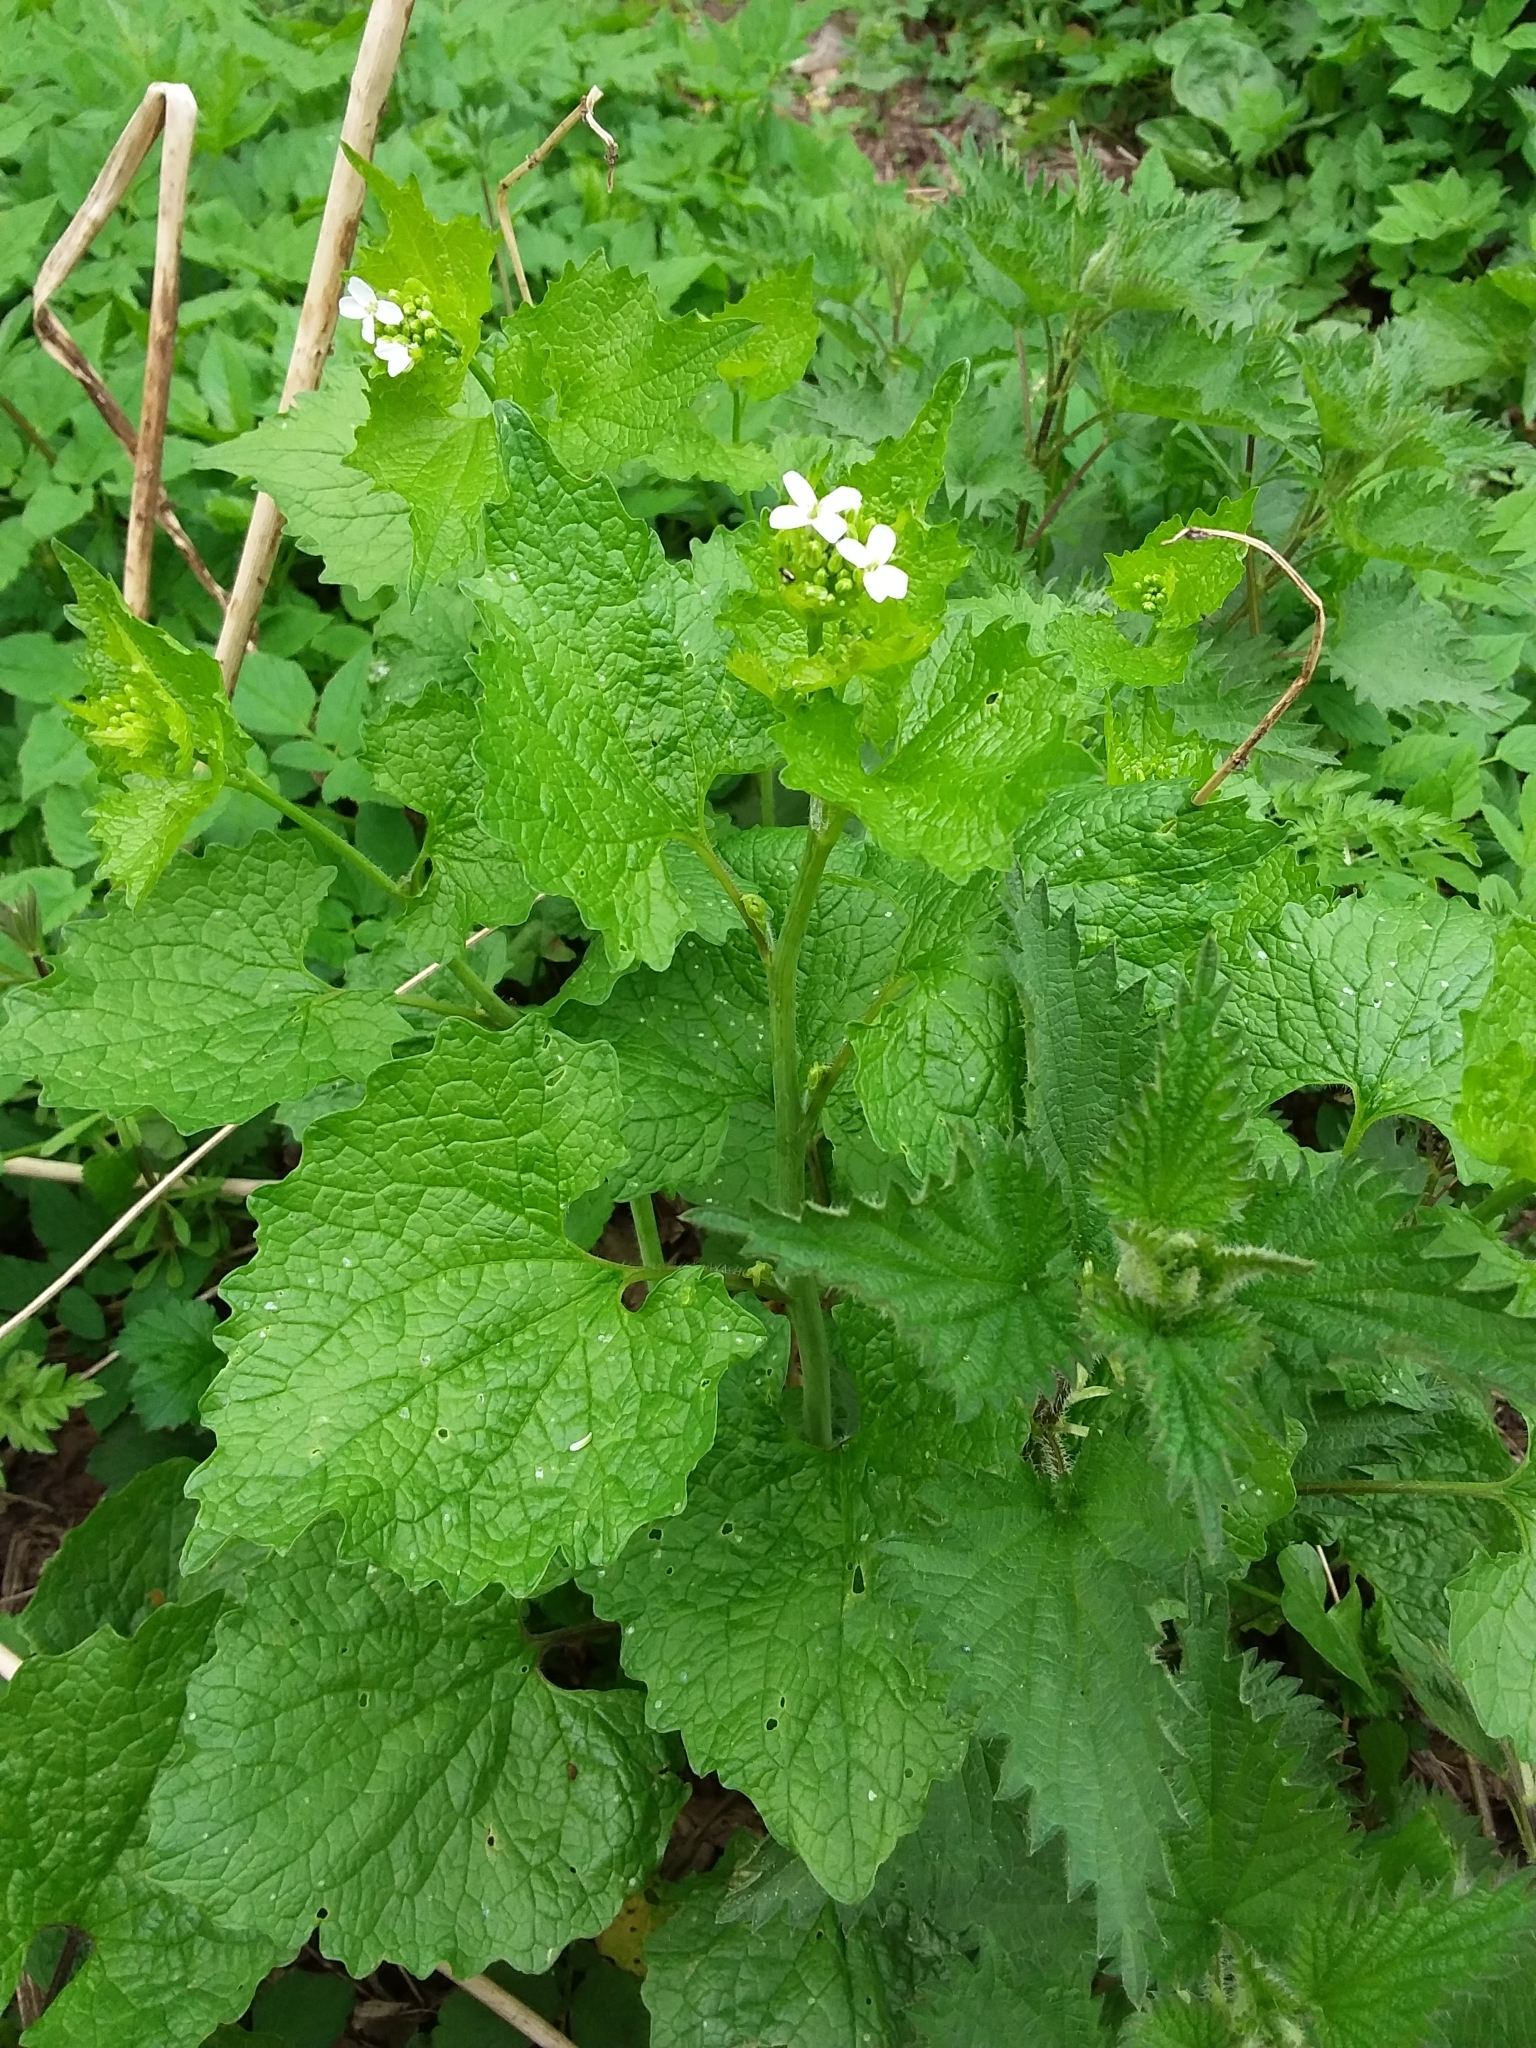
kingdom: Plantae
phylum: Tracheophyta
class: Magnoliopsida
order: Brassicales
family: Brassicaceae
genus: Alliaria
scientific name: Alliaria petiolata
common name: Garlic mustard
